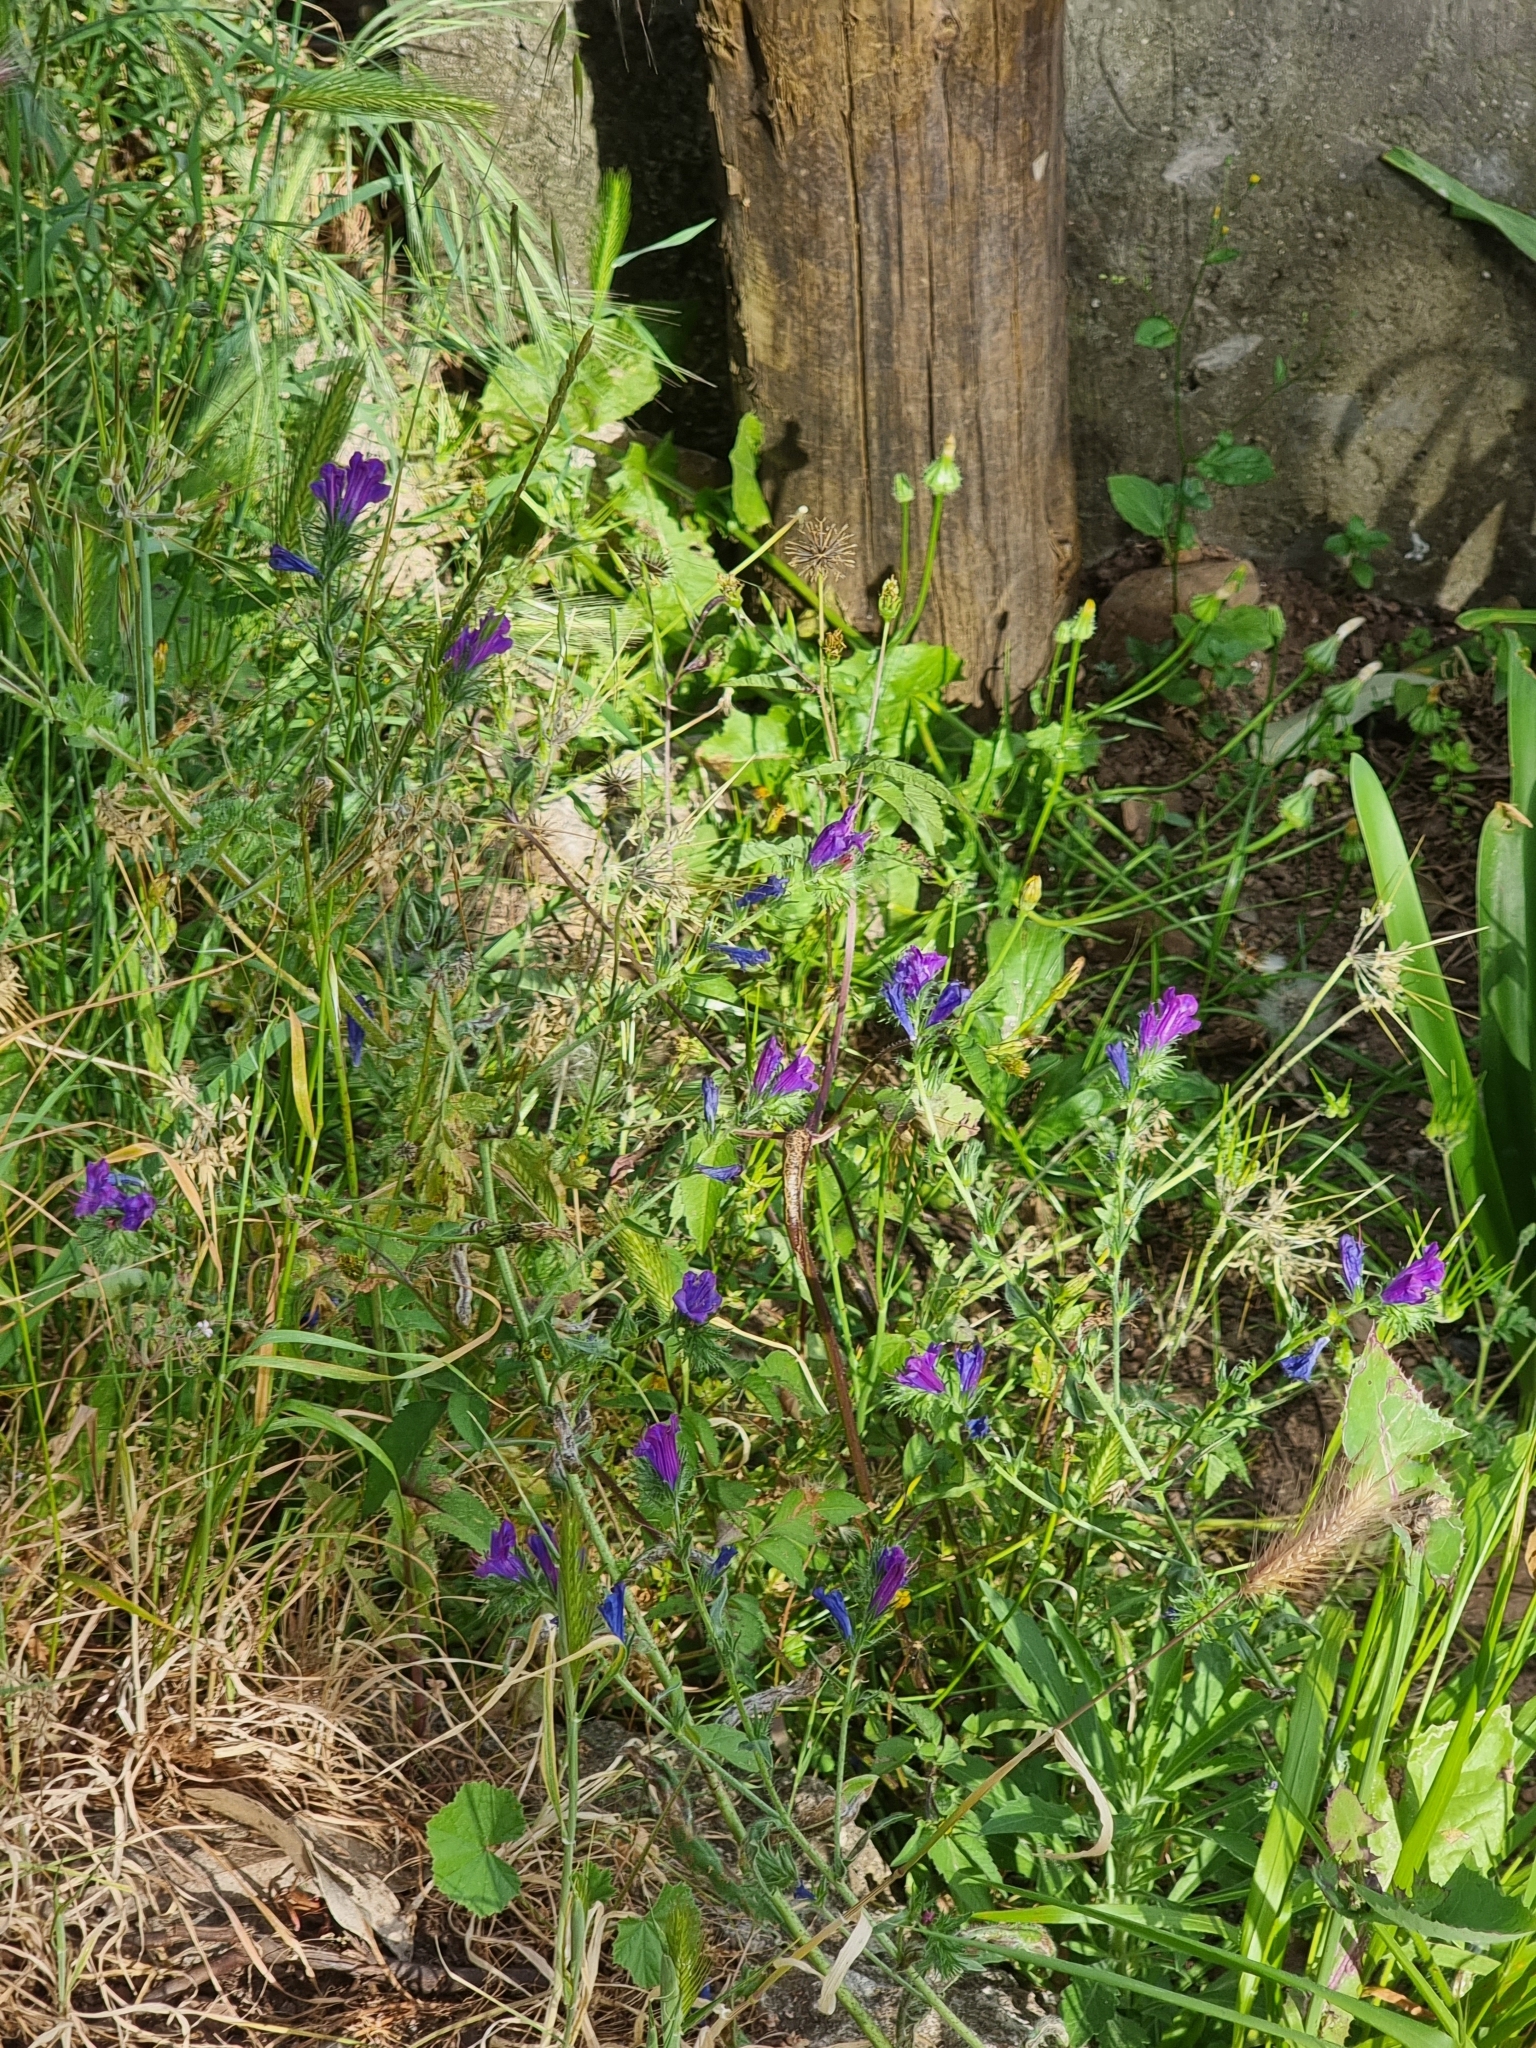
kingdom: Plantae
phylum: Tracheophyta
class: Magnoliopsida
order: Boraginales
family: Boraginaceae
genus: Echium
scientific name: Echium plantagineum
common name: Purple viper's-bugloss
